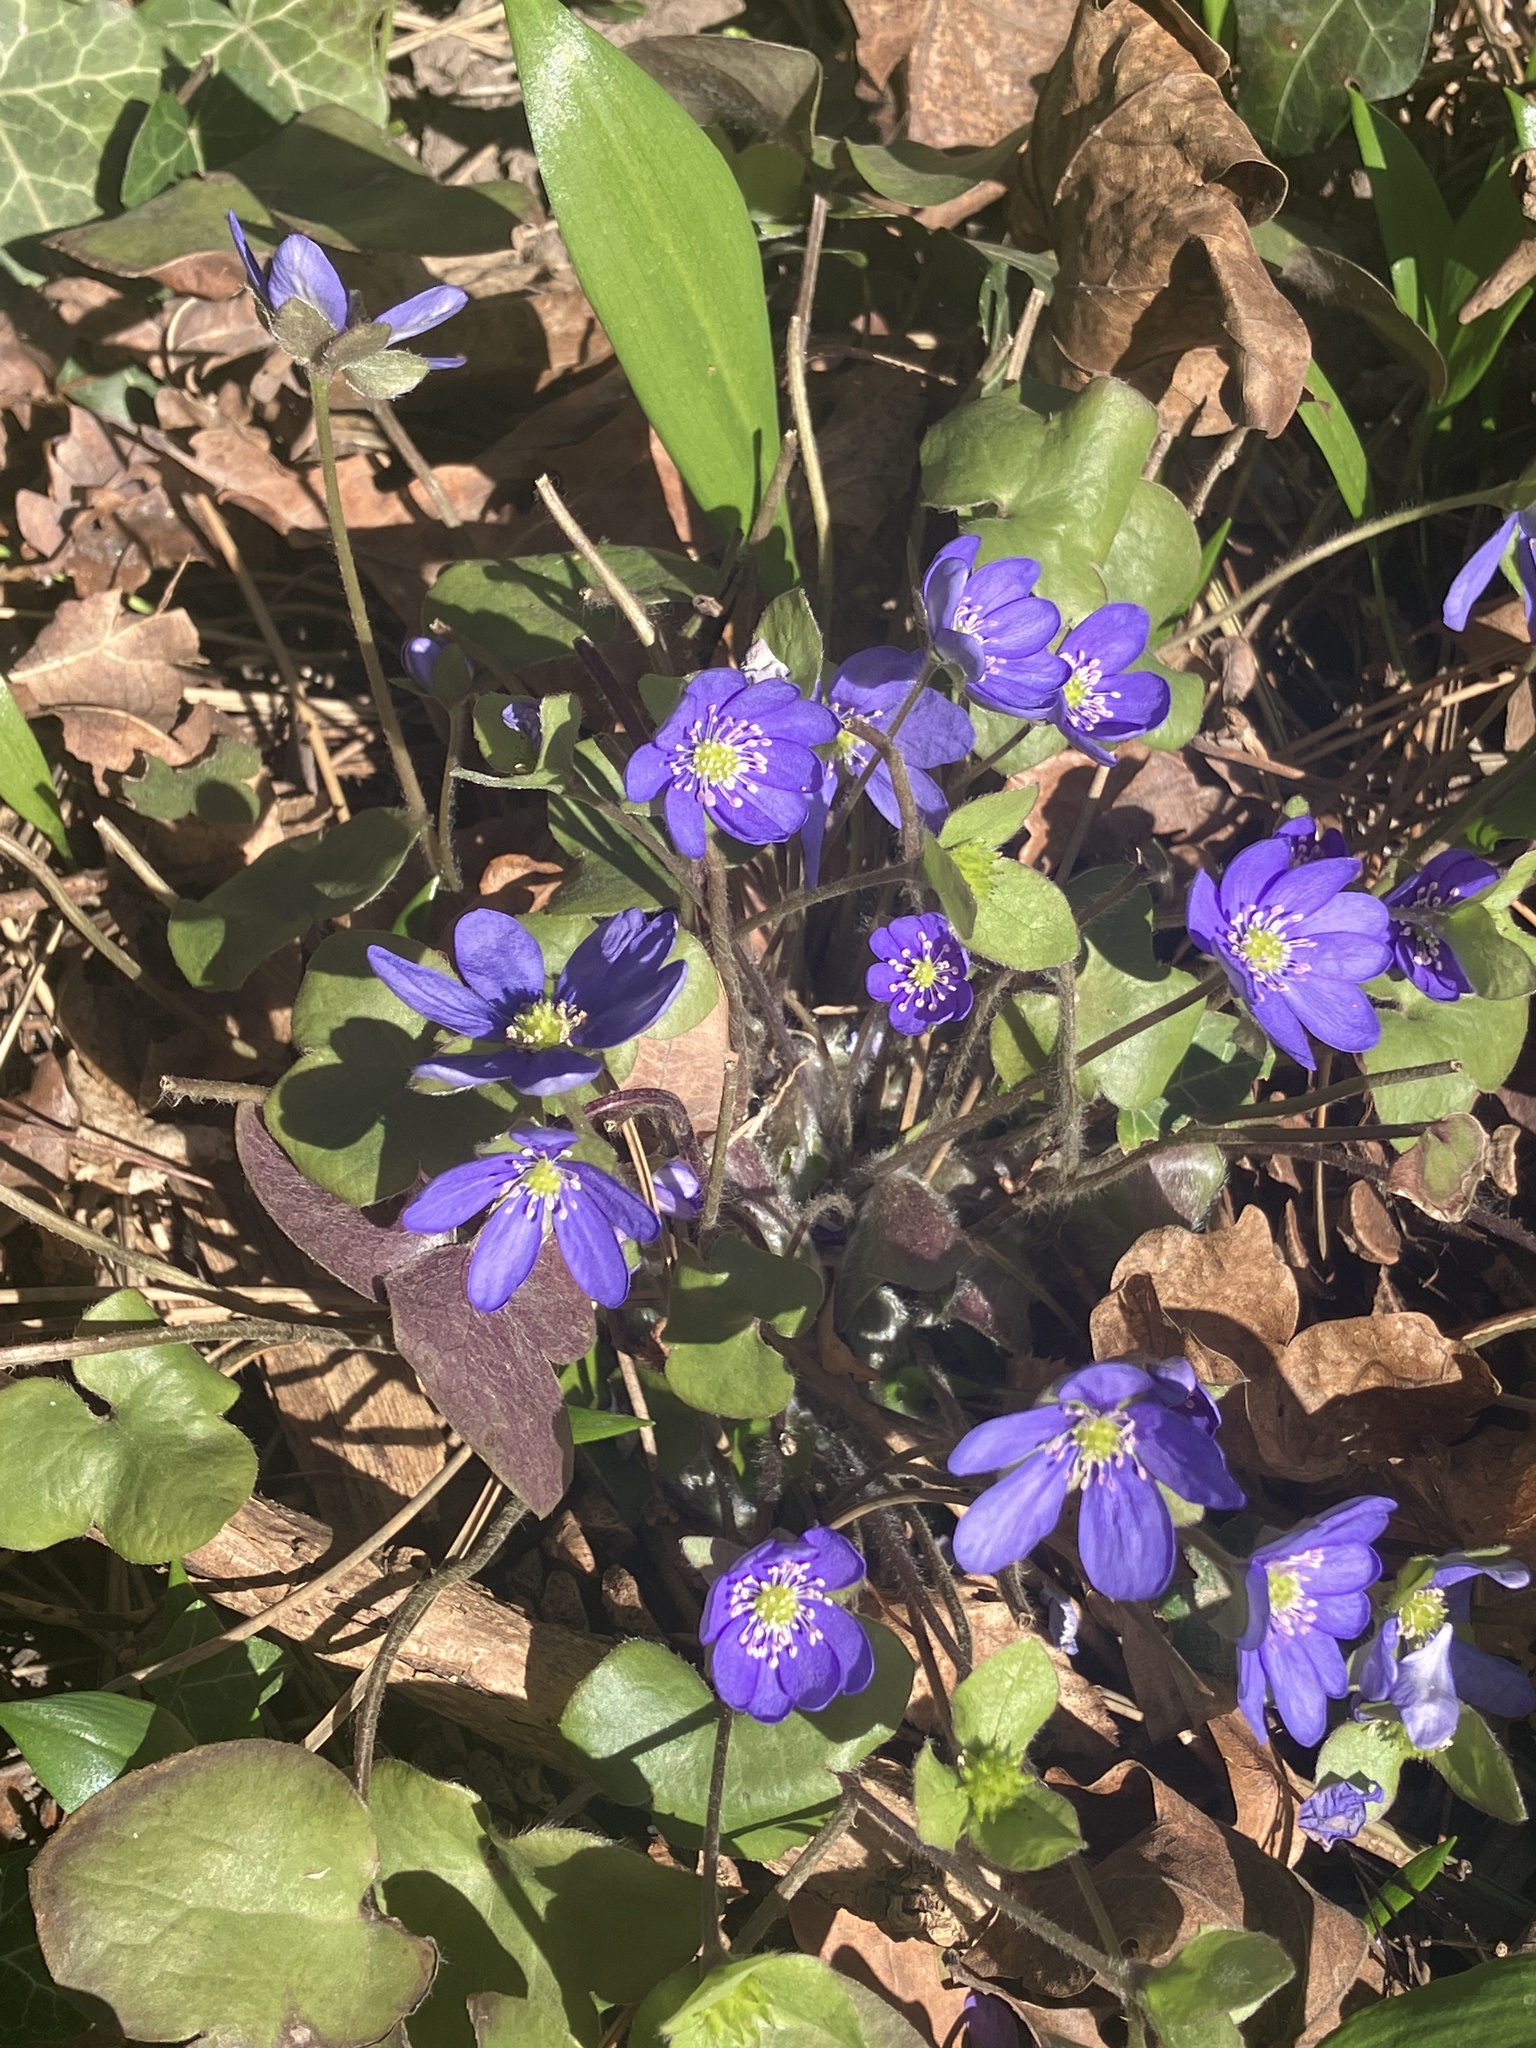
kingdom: Plantae
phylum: Tracheophyta
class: Magnoliopsida
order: Ranunculales
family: Ranunculaceae
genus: Hepatica
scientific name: Hepatica nobilis
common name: Liverleaf
